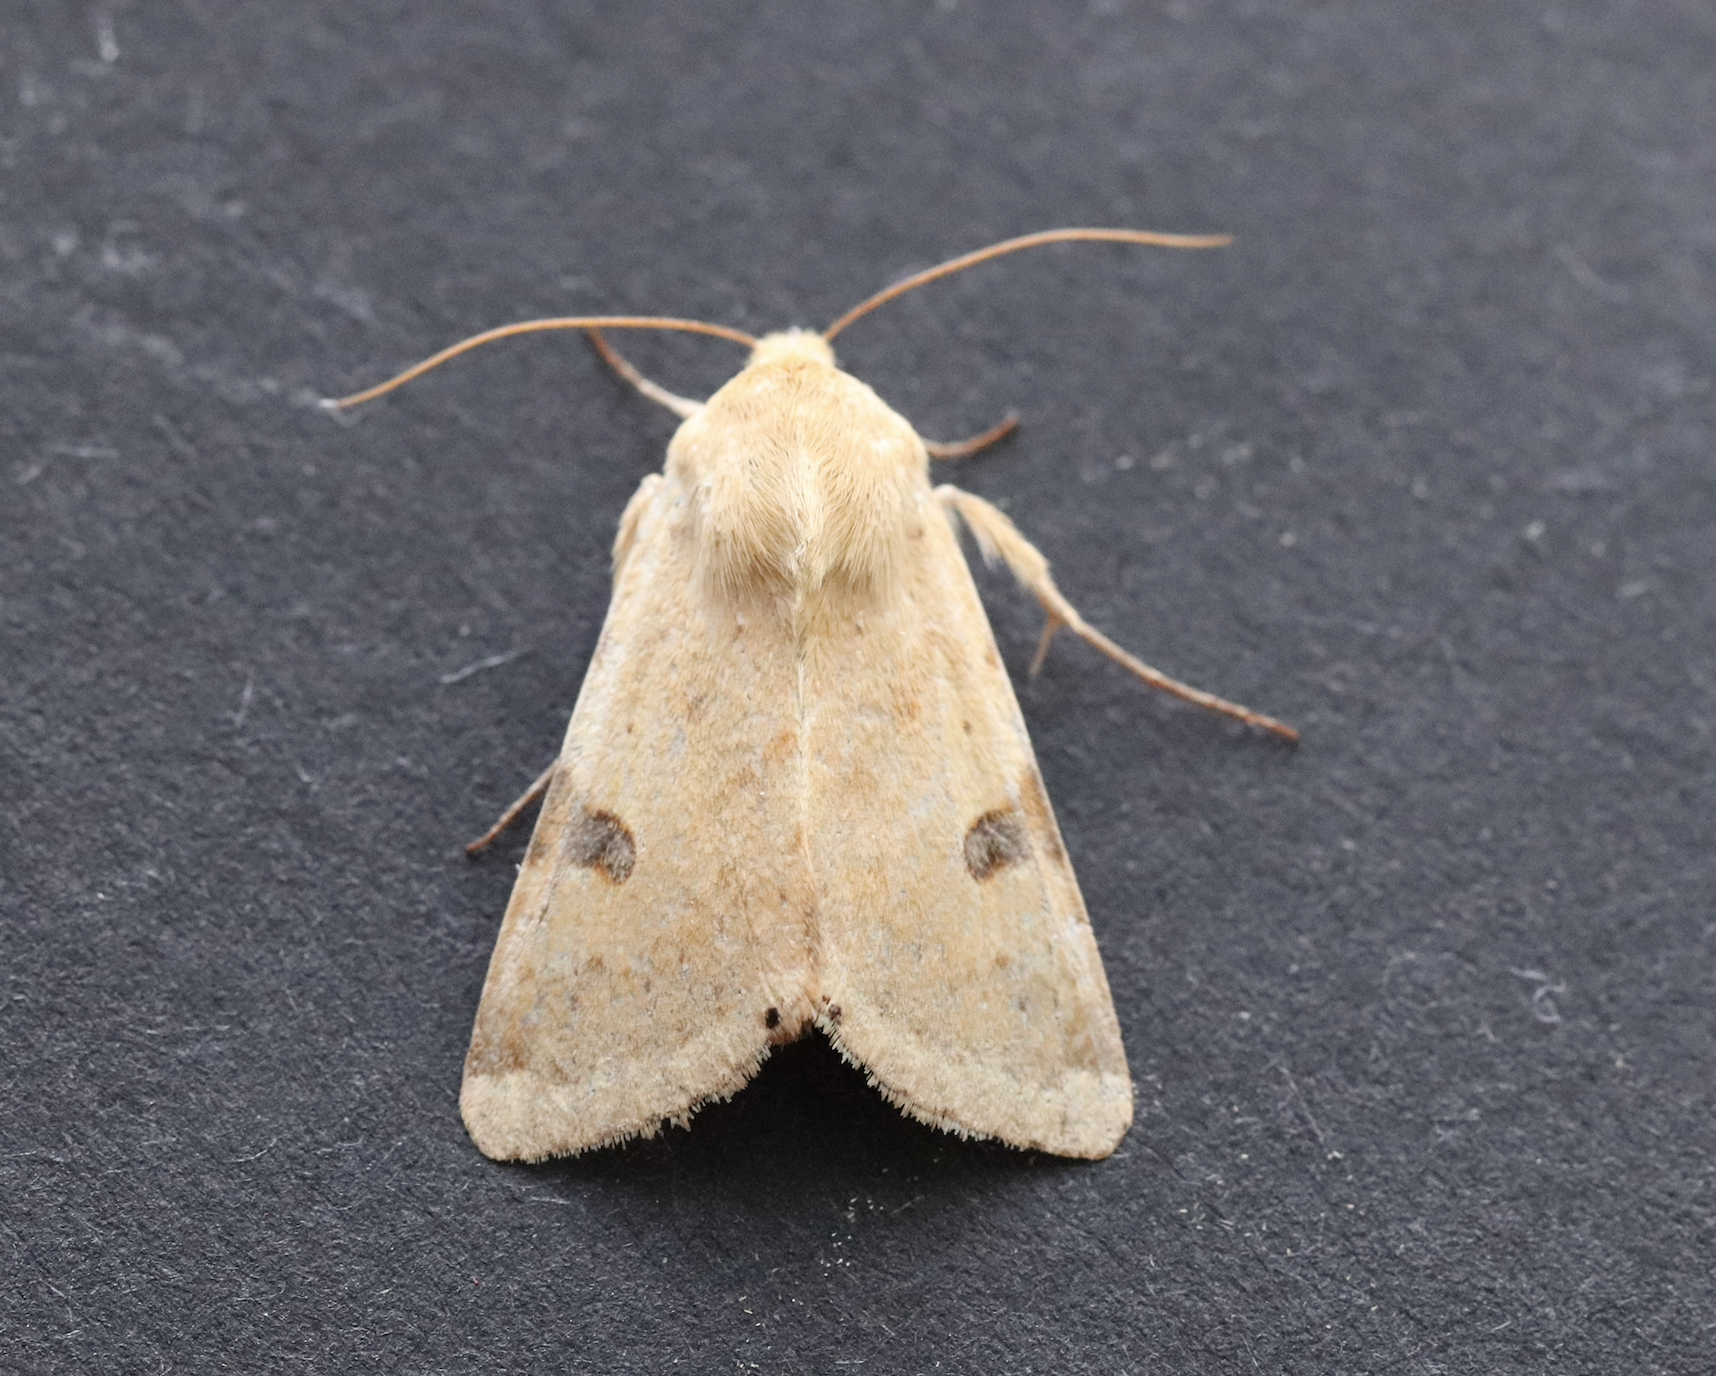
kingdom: Animalia
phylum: Arthropoda
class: Insecta
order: Lepidoptera
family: Noctuidae
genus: Heliothis
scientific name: Heliothis peltigera
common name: Bordered straw
